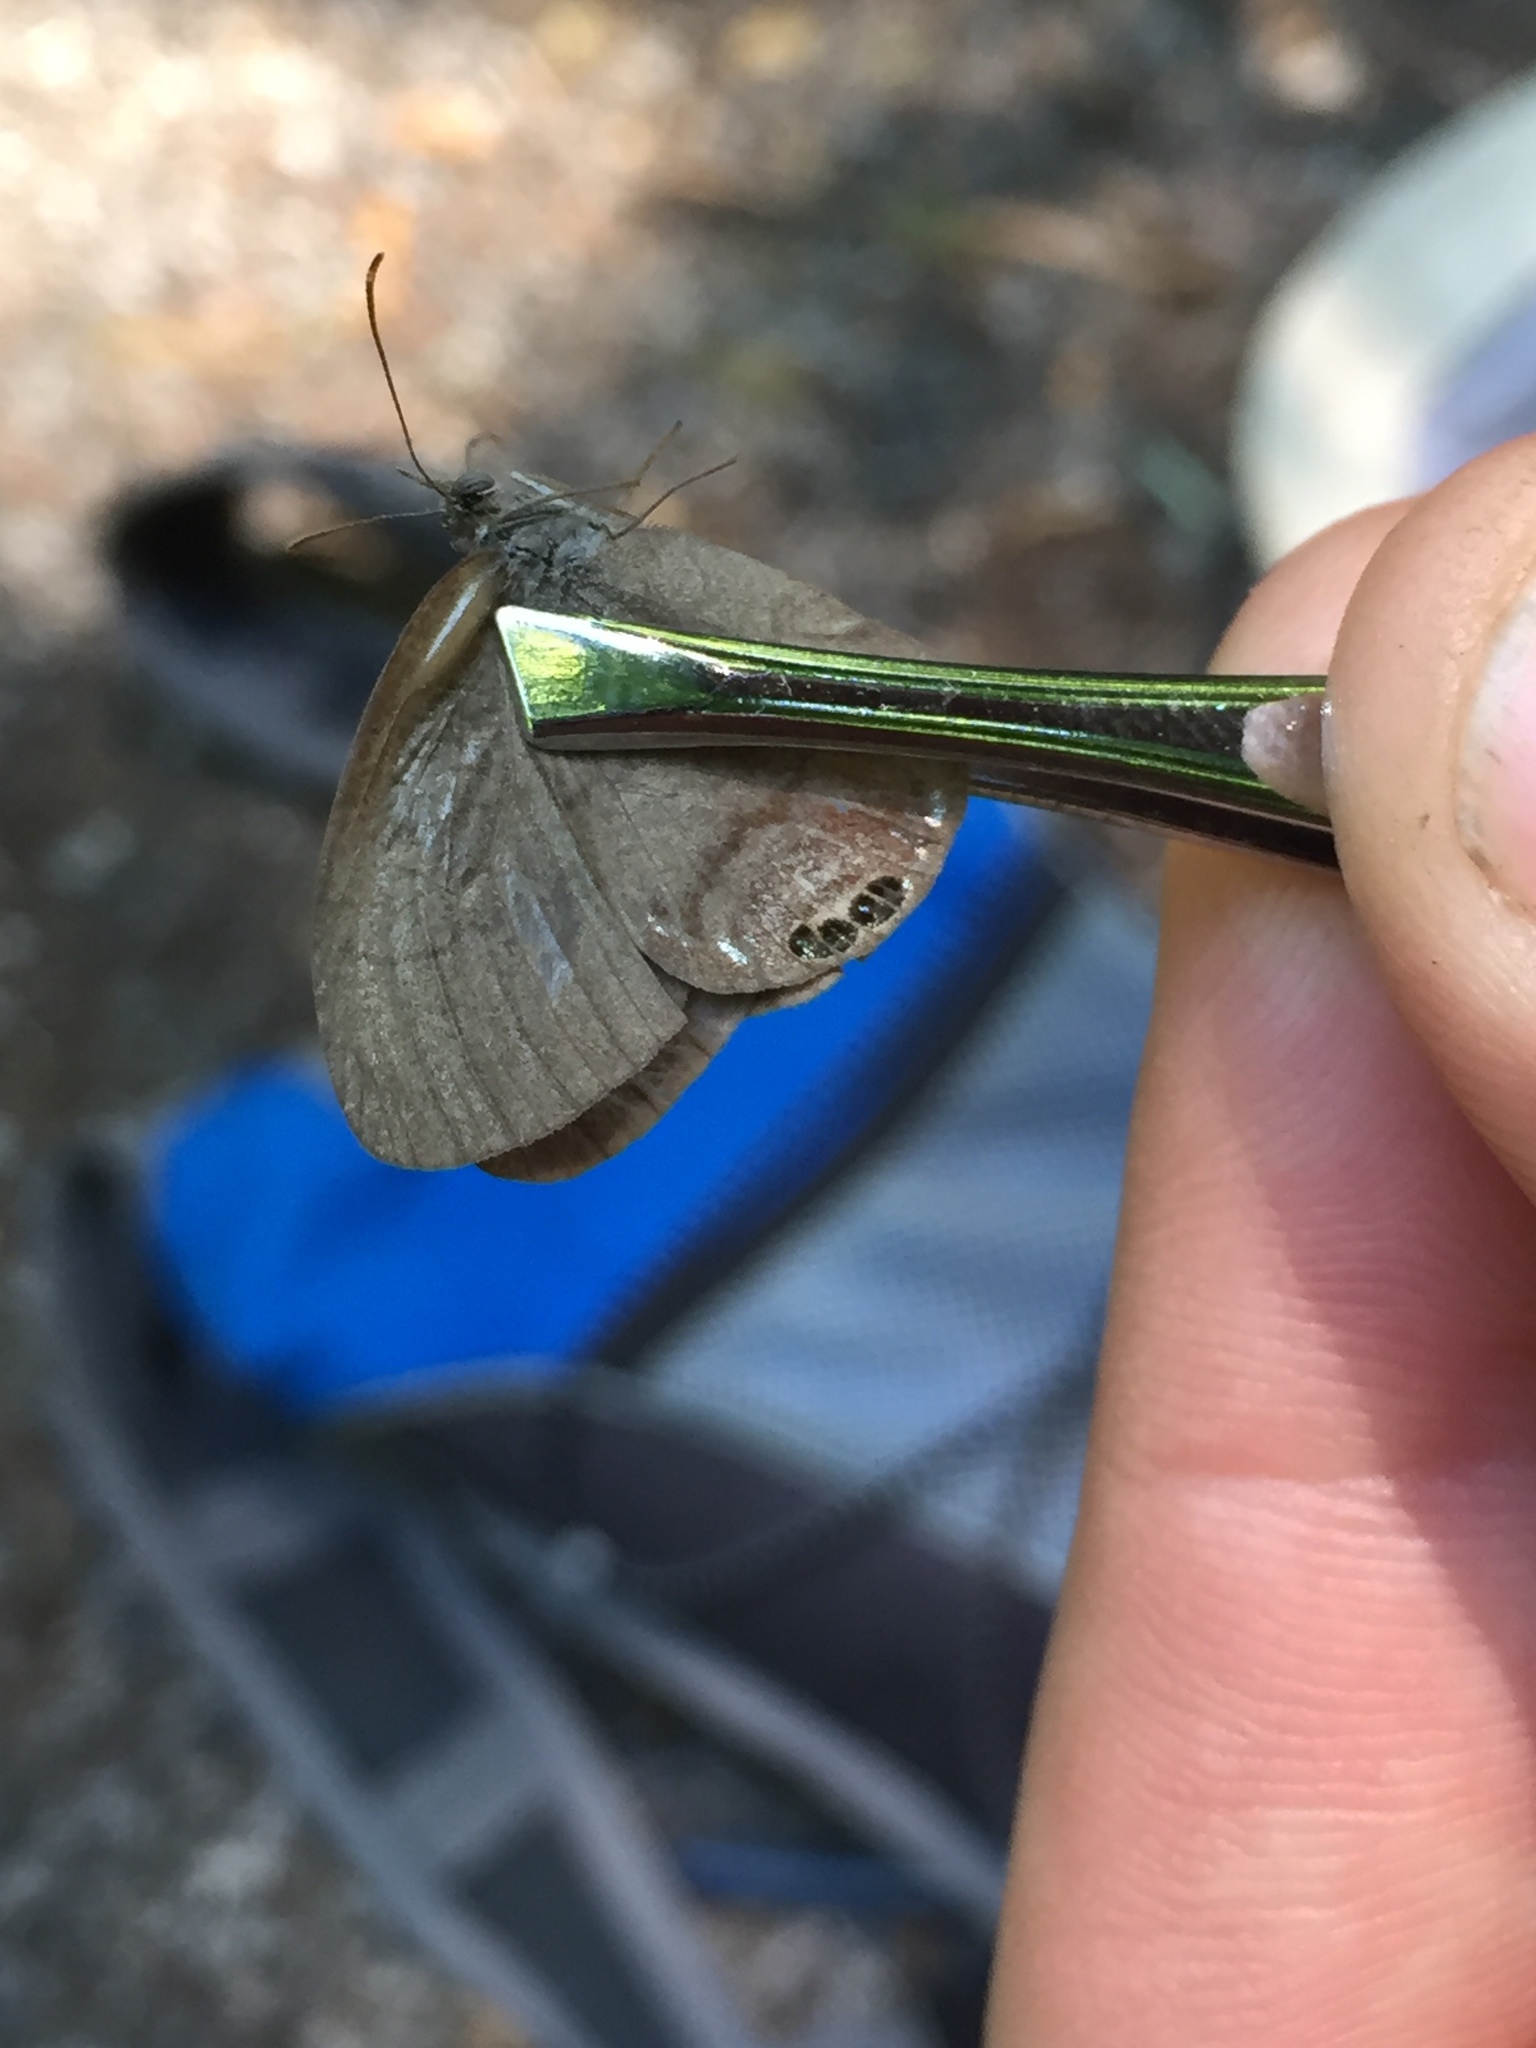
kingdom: Animalia
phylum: Arthropoda
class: Insecta
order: Lepidoptera
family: Nymphalidae
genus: Euptychia
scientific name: Euptychia cornelius
